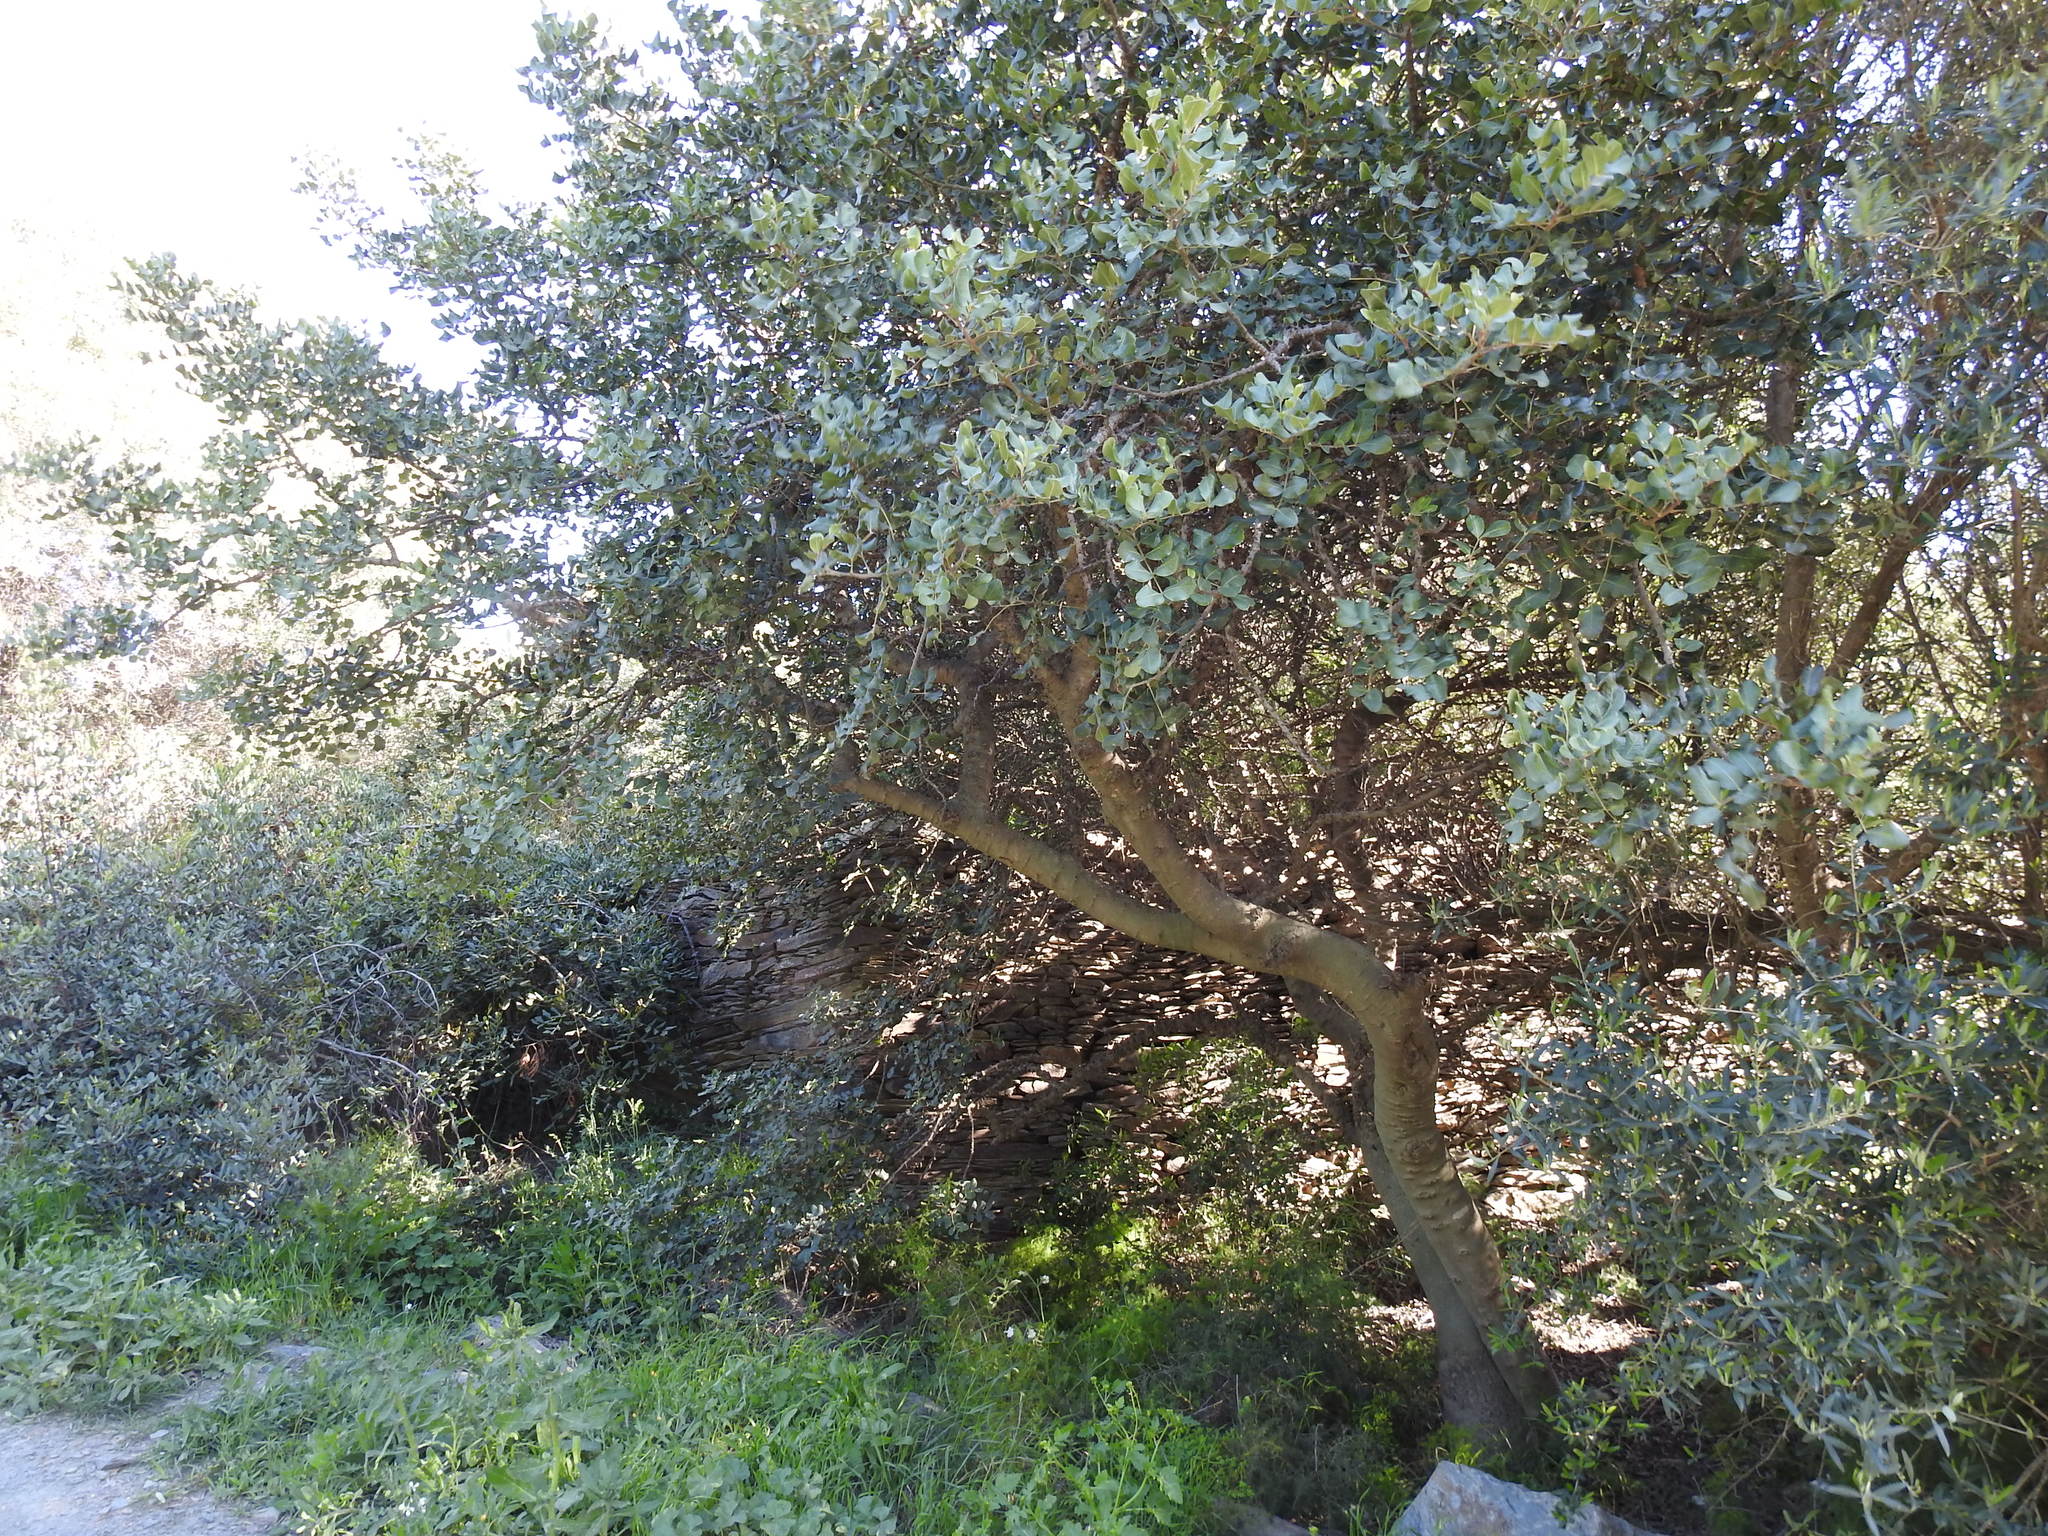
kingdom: Plantae
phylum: Tracheophyta
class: Magnoliopsida
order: Fabales
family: Fabaceae
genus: Ceratonia
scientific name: Ceratonia siliqua
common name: Carob
